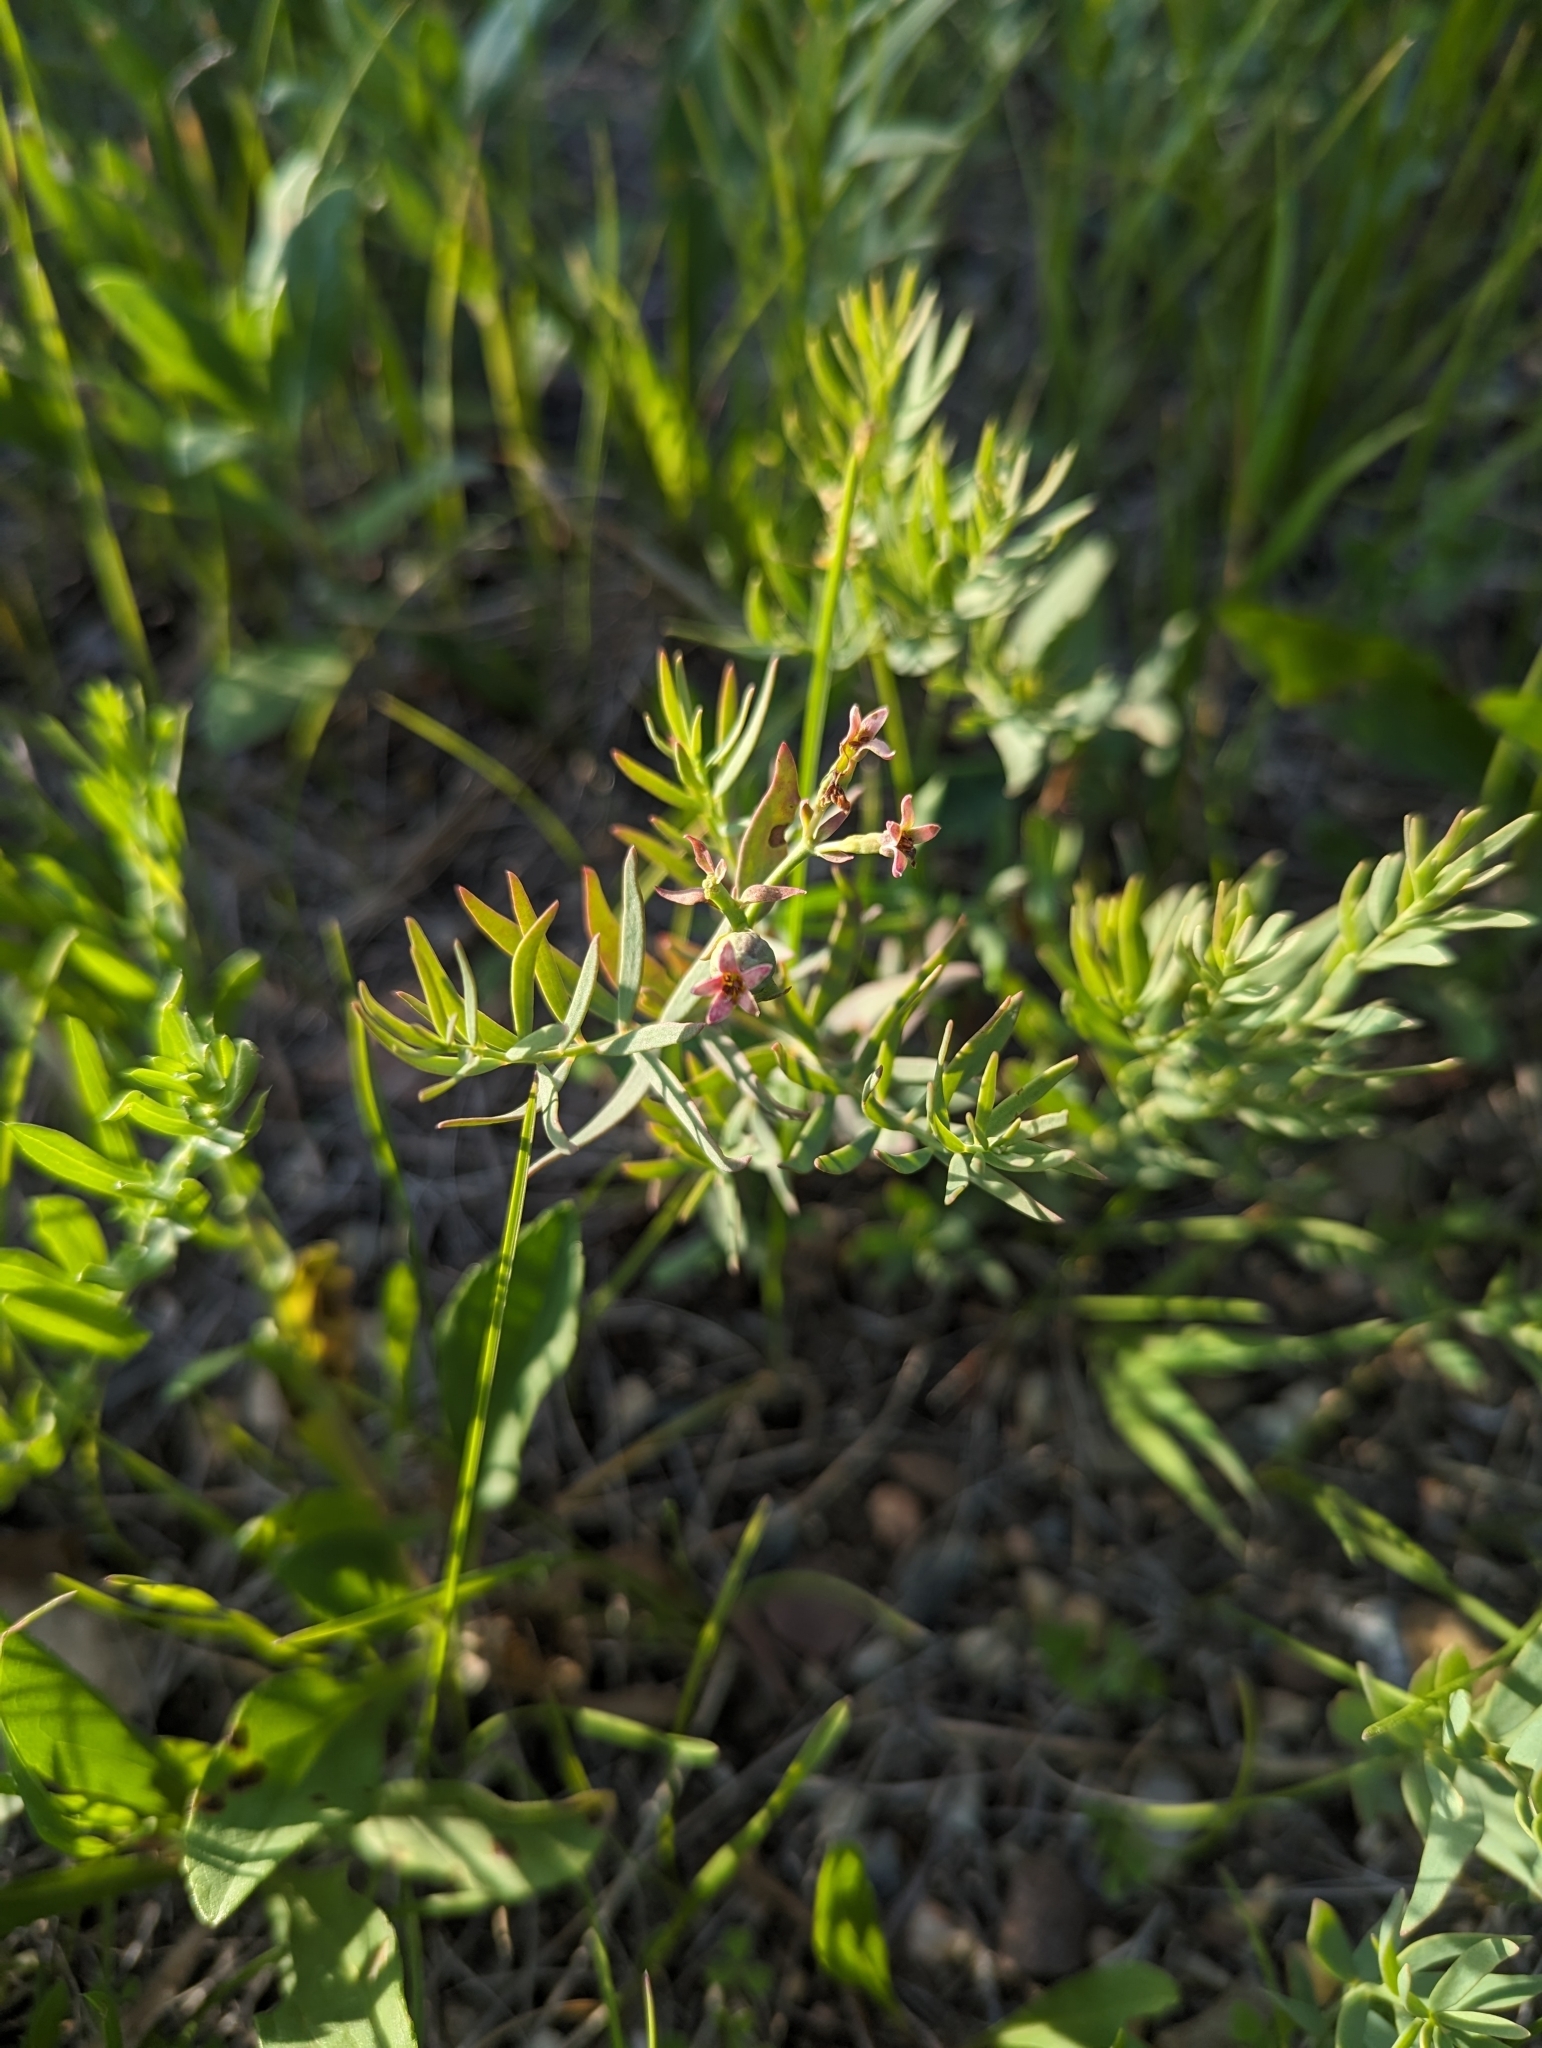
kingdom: Plantae
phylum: Tracheophyta
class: Magnoliopsida
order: Santalales
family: Comandraceae
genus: Comandra
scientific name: Comandra umbellata
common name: Bastard toadflax
